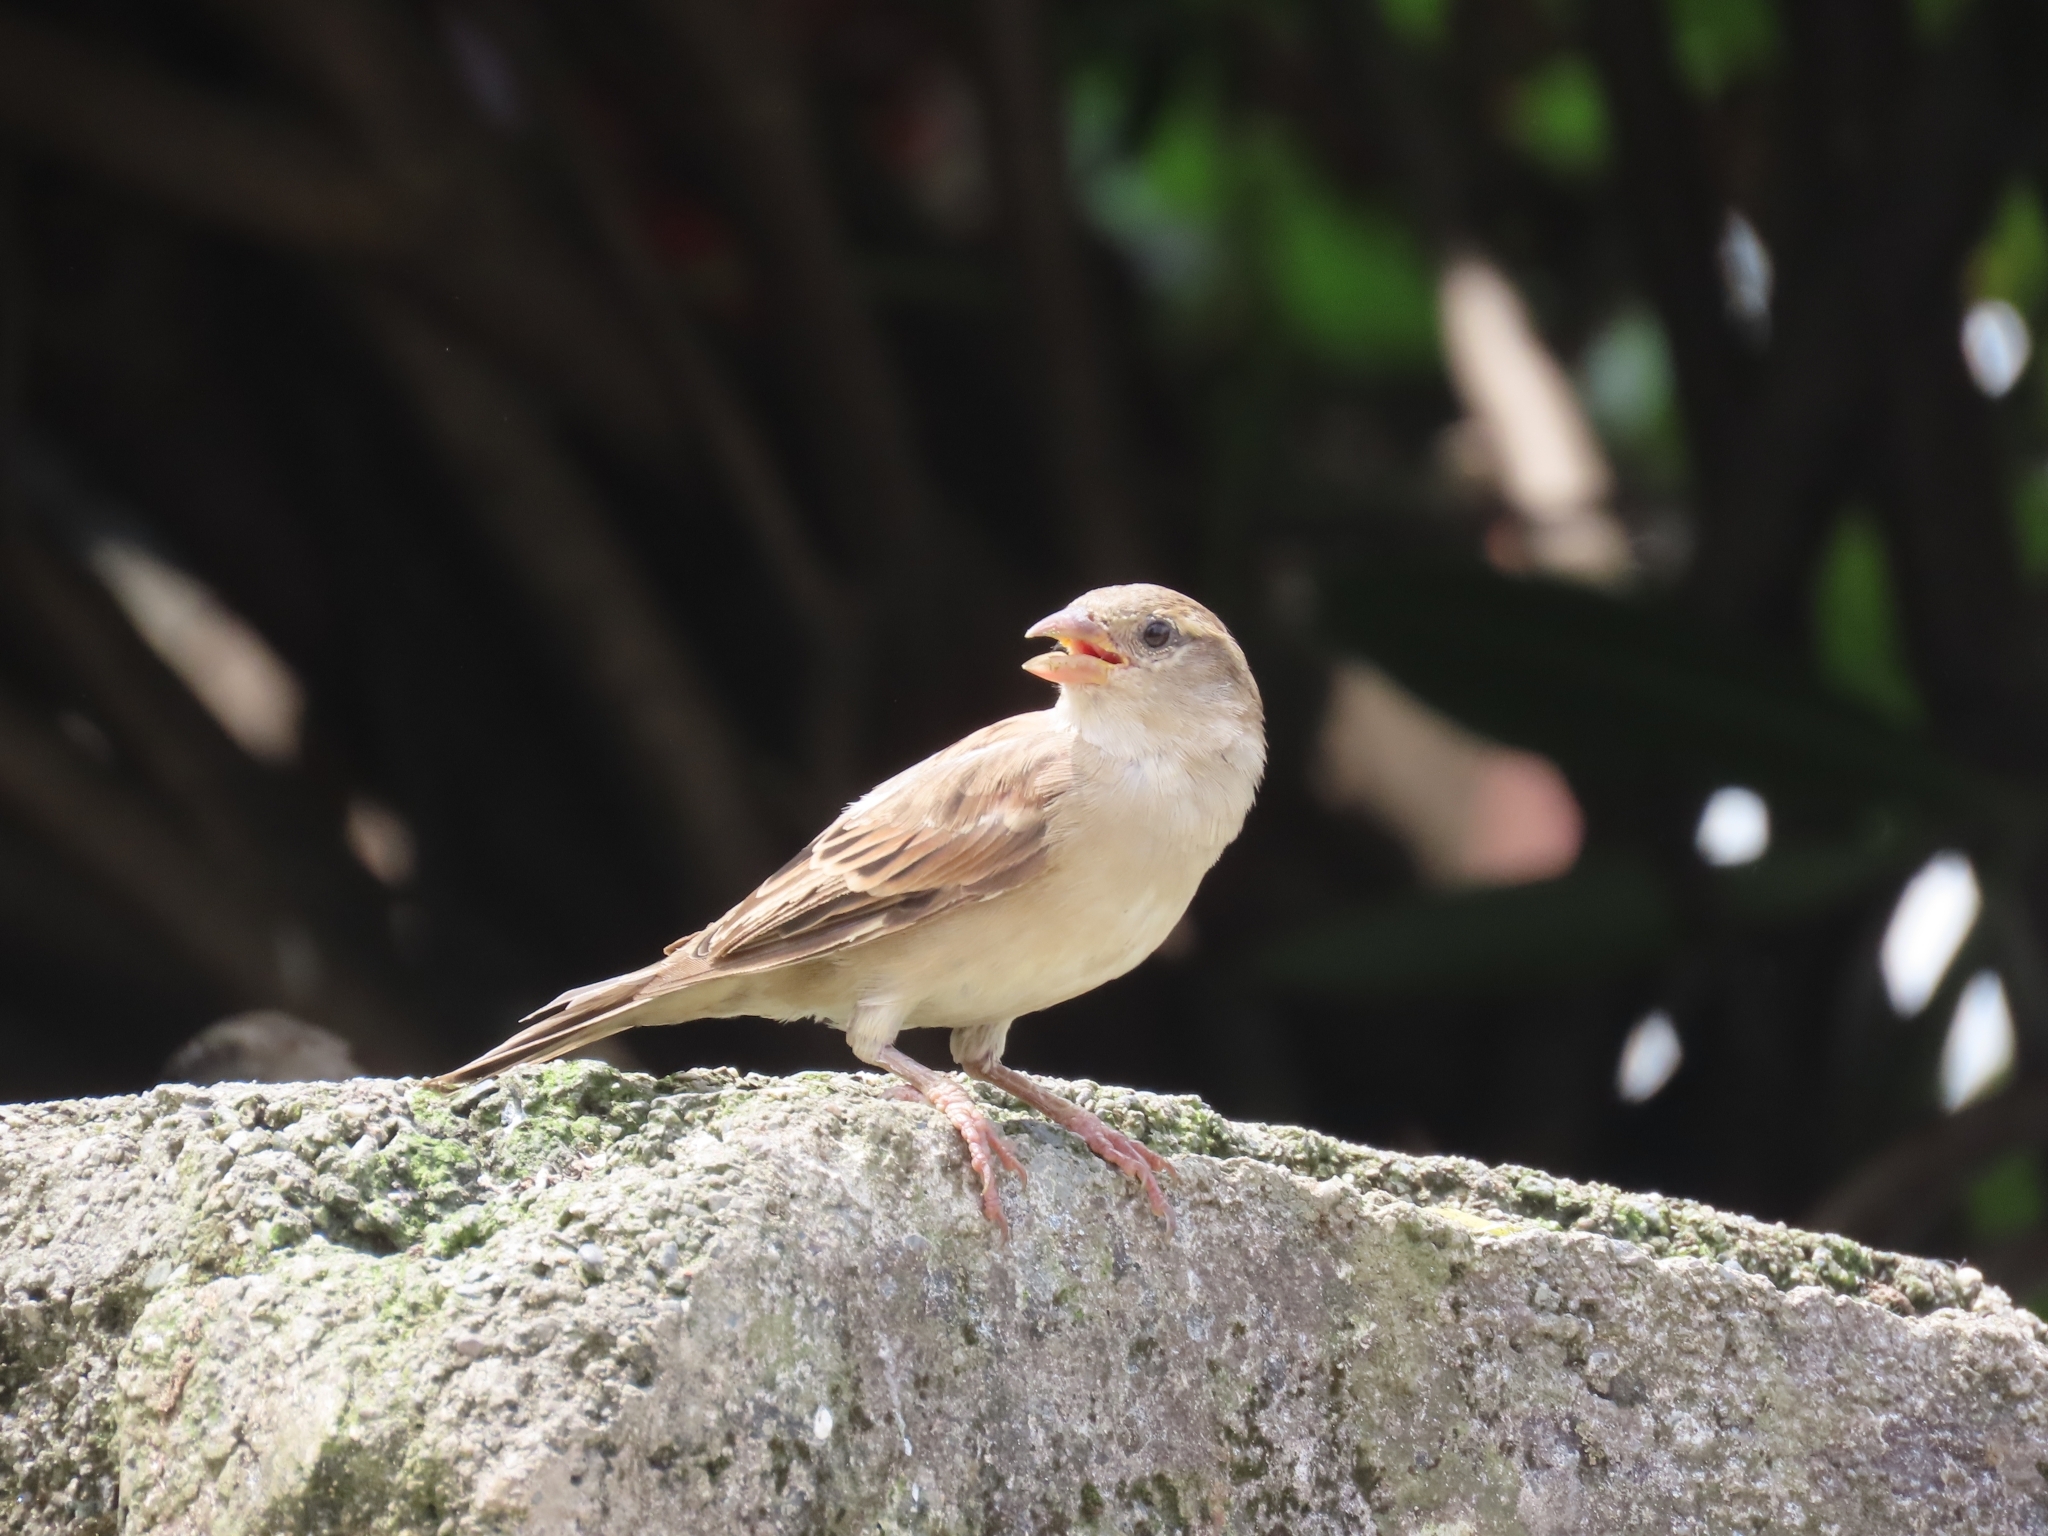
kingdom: Animalia
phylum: Chordata
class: Aves
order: Passeriformes
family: Passeridae
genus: Passer
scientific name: Passer domesticus
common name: House sparrow
